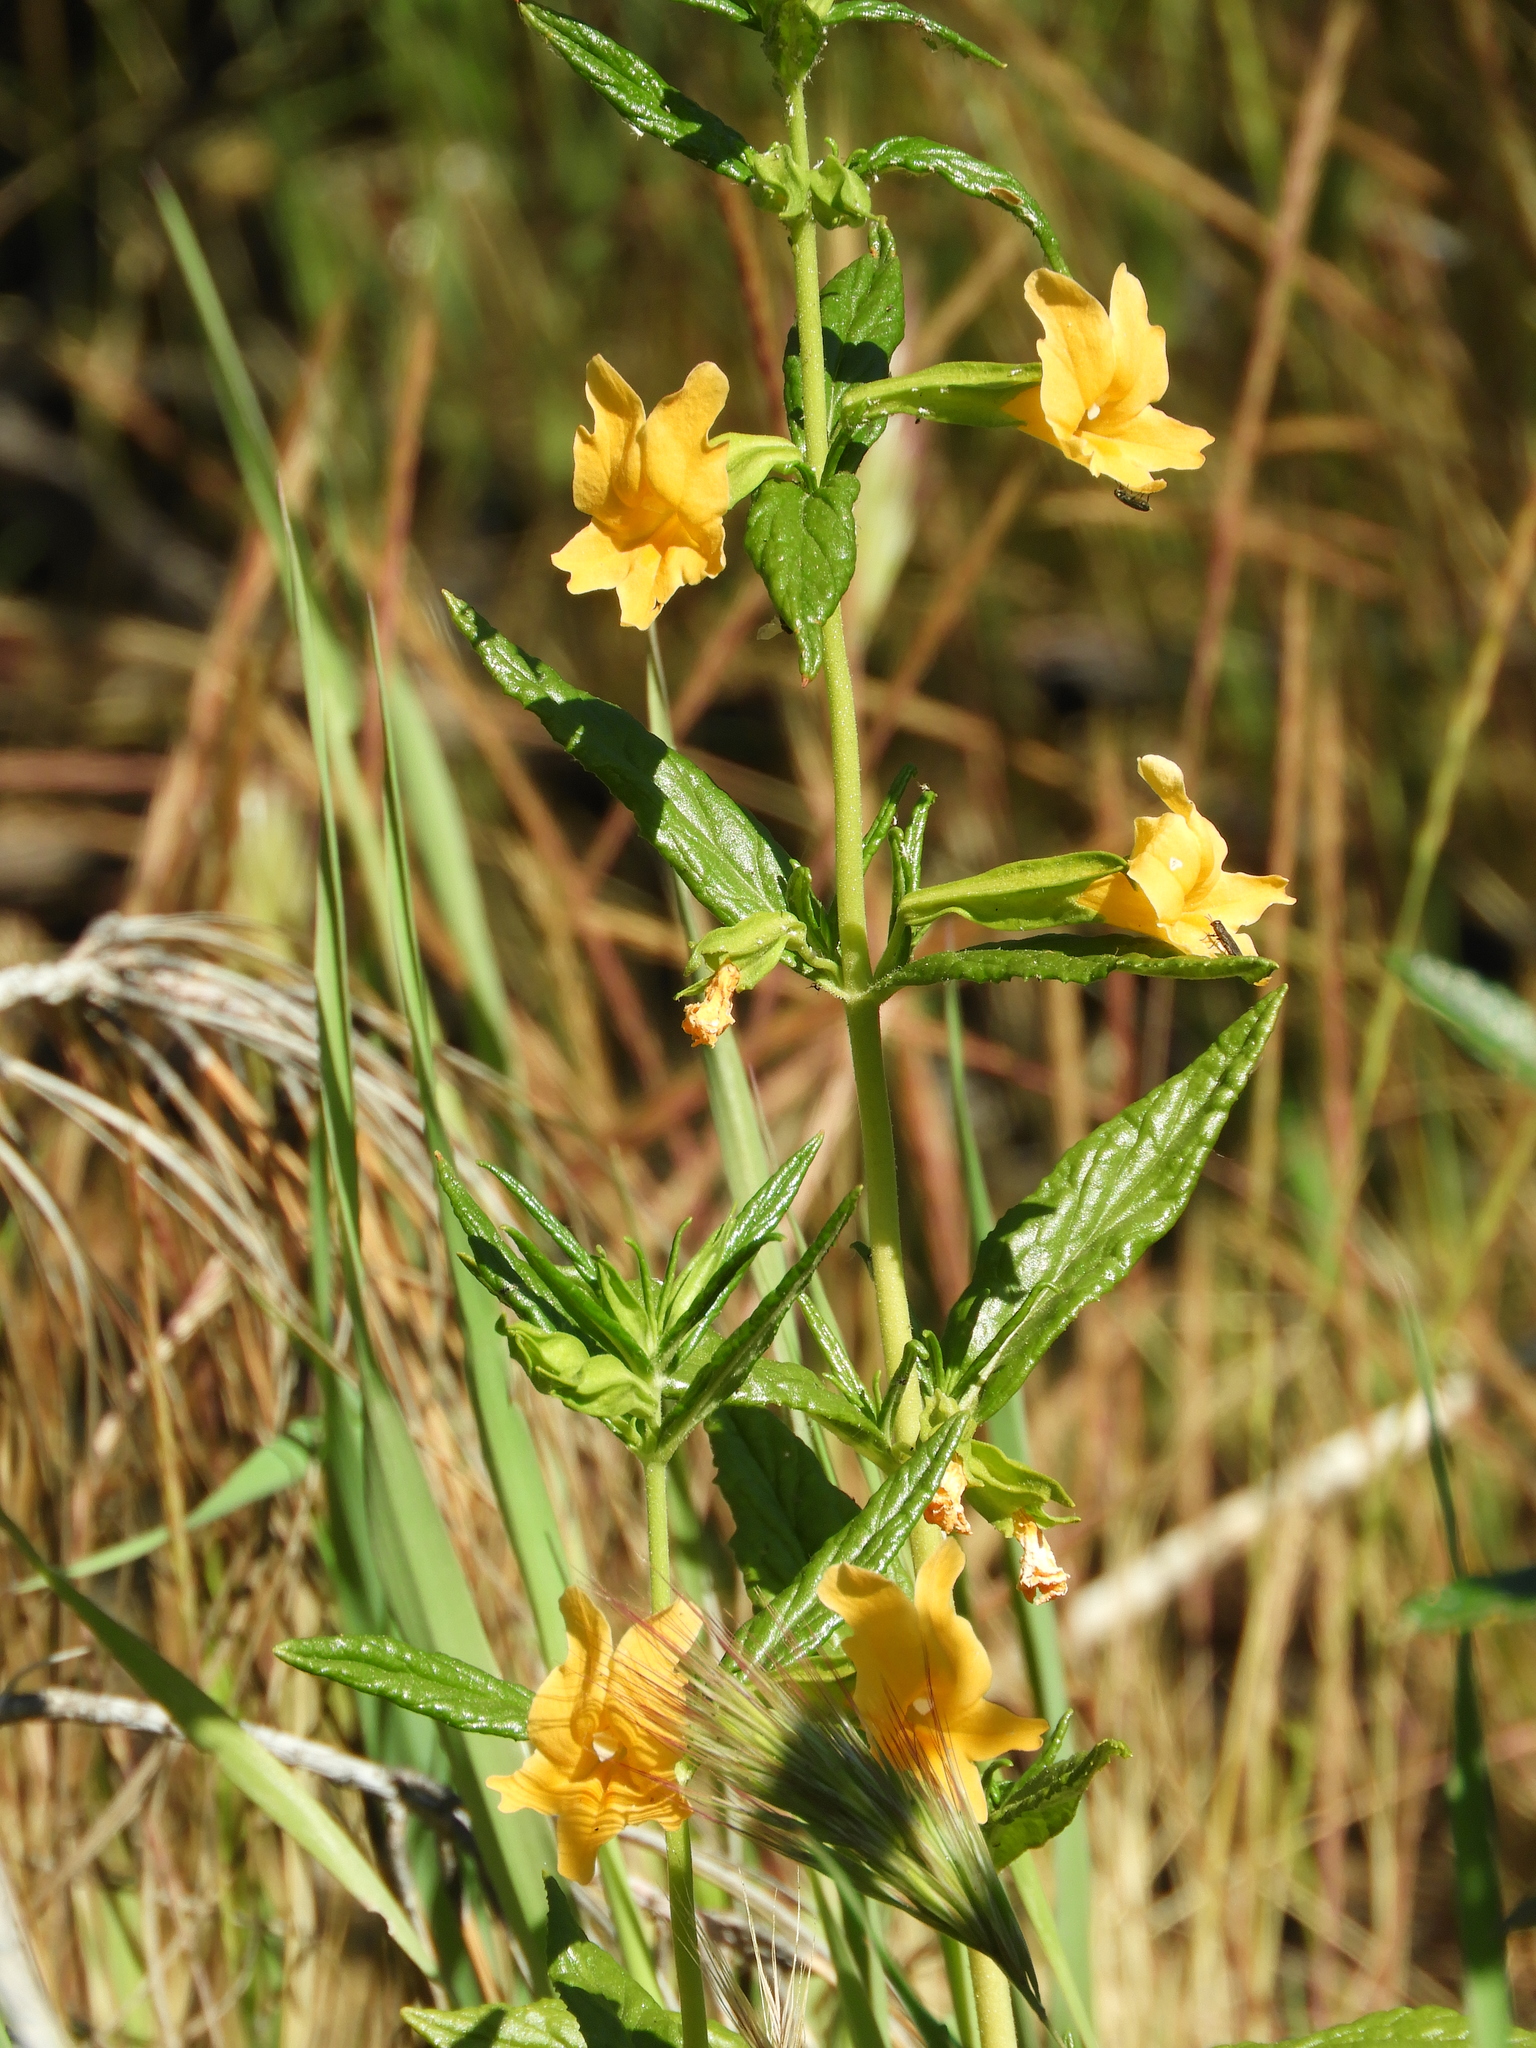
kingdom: Plantae
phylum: Tracheophyta
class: Magnoliopsida
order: Lamiales
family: Phrymaceae
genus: Diplacus
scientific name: Diplacus aurantiacus
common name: Bush monkey-flower
